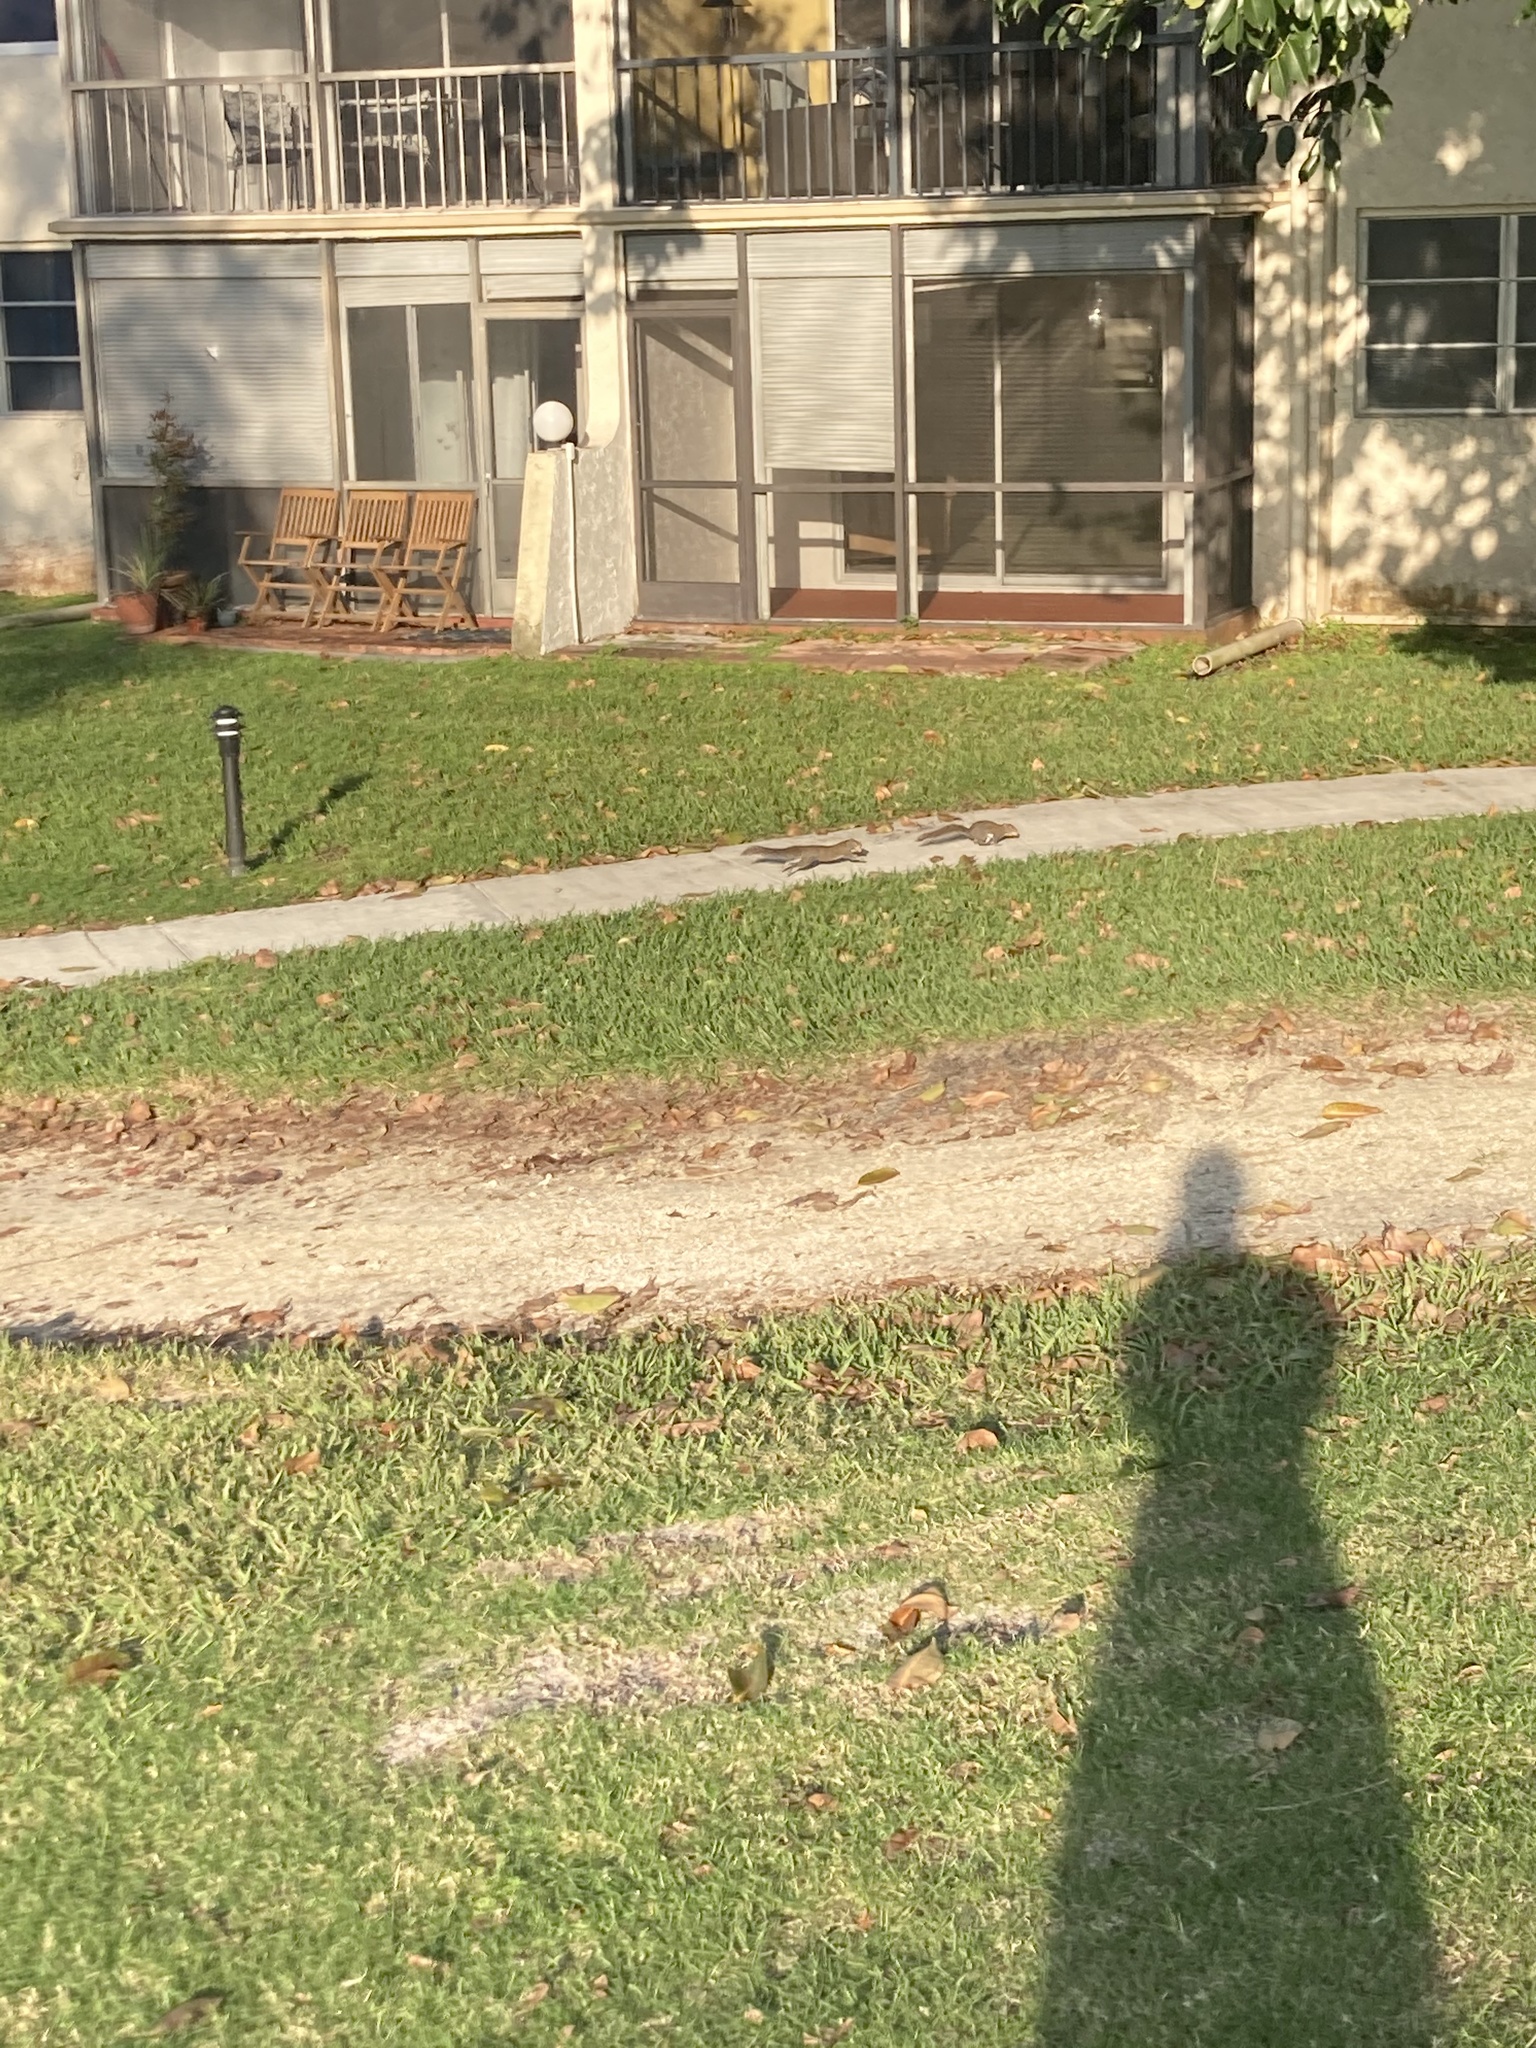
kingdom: Animalia
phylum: Chordata
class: Mammalia
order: Rodentia
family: Sciuridae
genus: Sciurus
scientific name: Sciurus carolinensis
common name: Eastern gray squirrel
